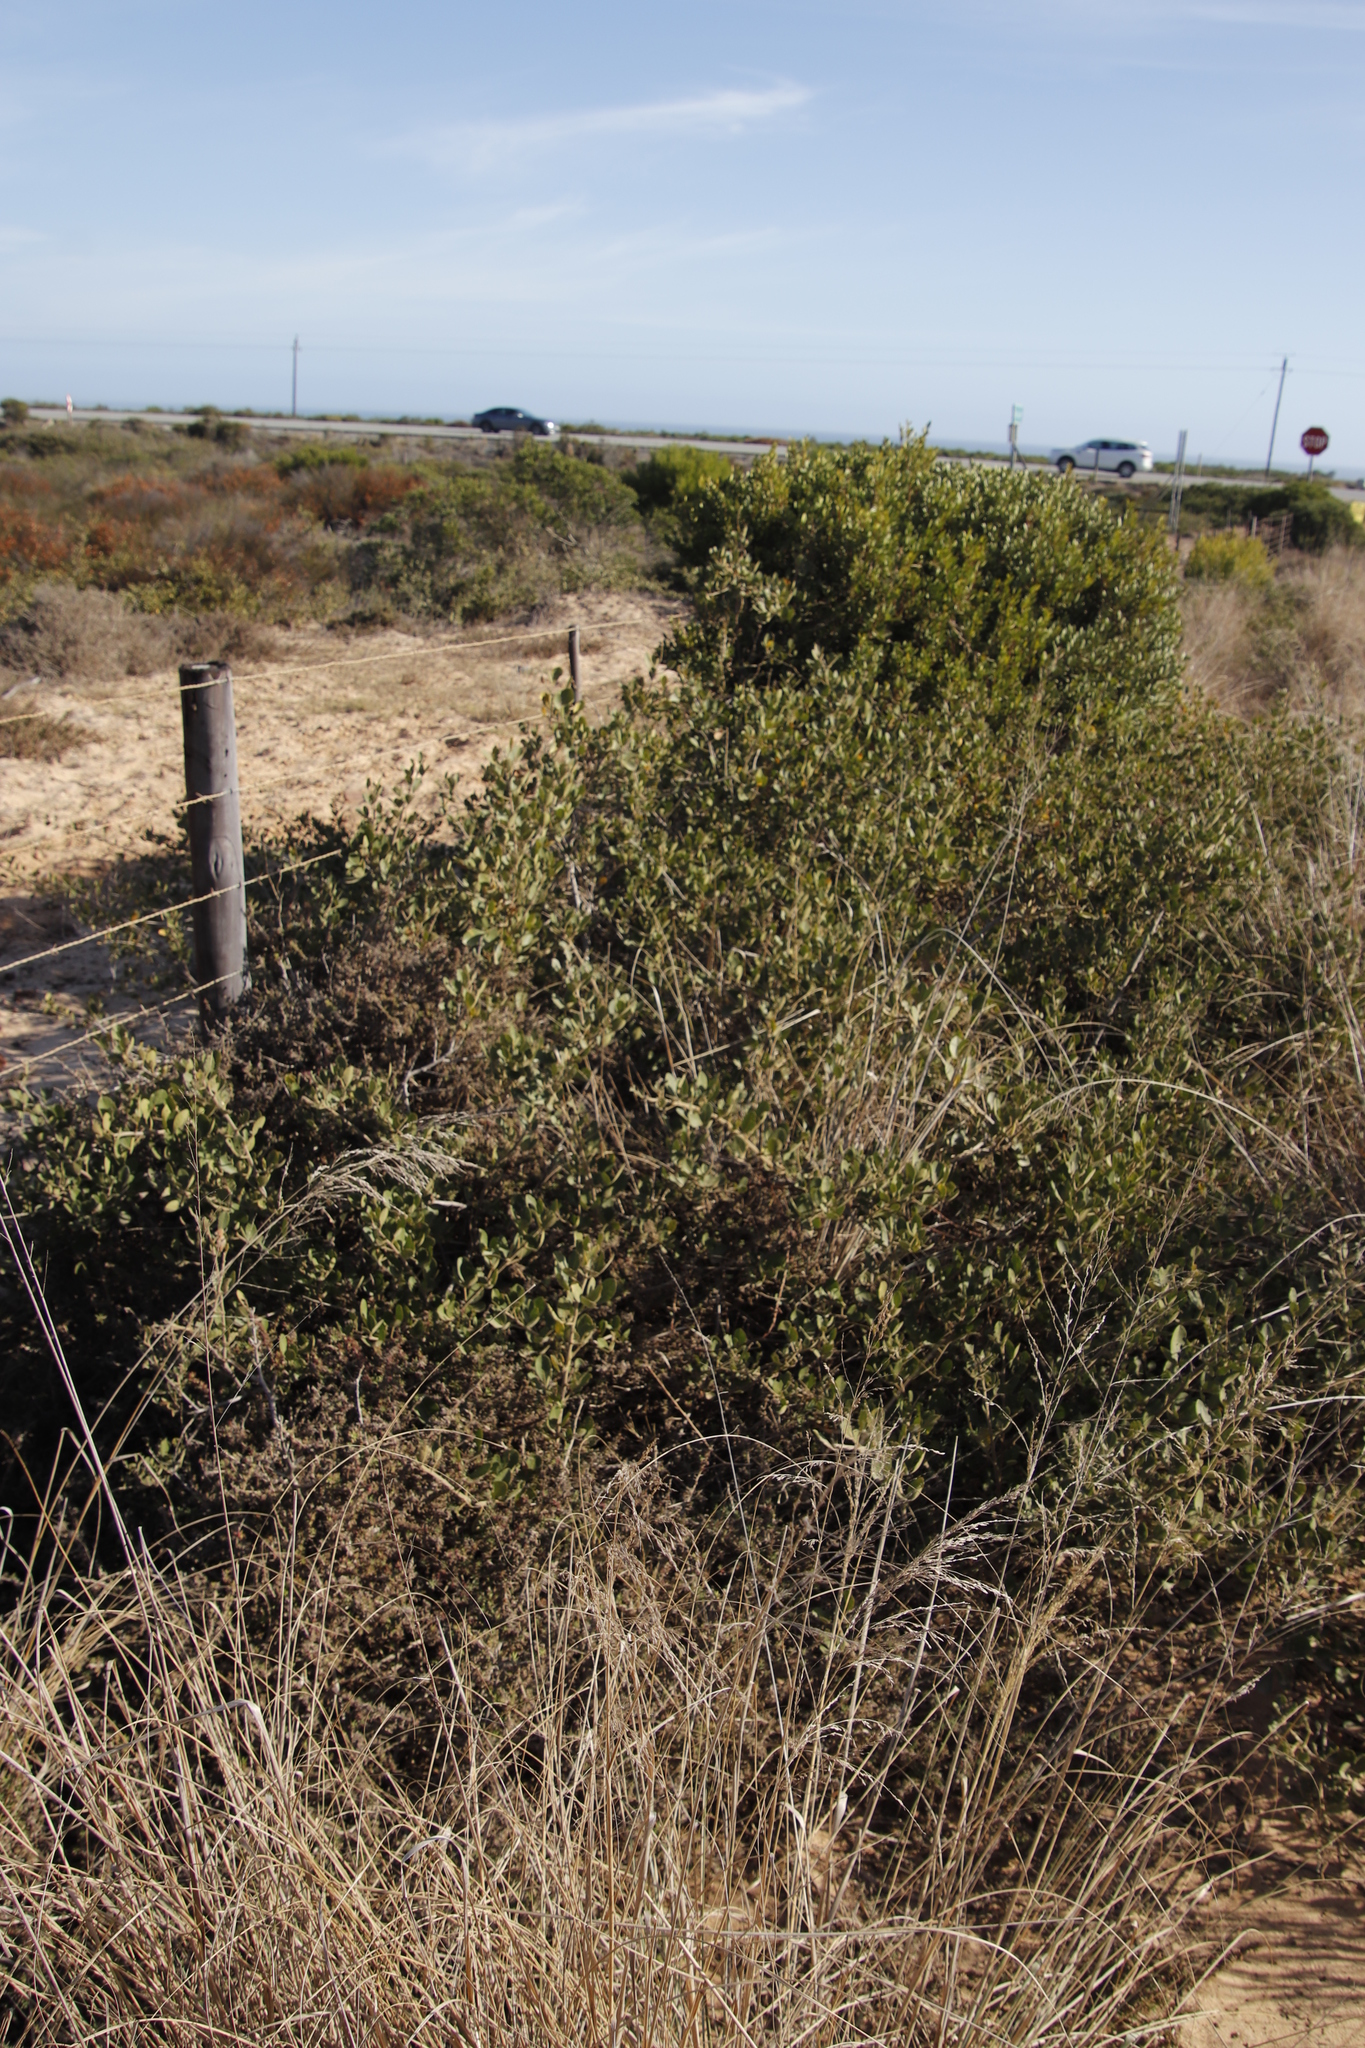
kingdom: Plantae
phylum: Tracheophyta
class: Magnoliopsida
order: Celastrales
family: Celastraceae
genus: Gymnosporia
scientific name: Gymnosporia buxifolia
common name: Common spike-thorn
